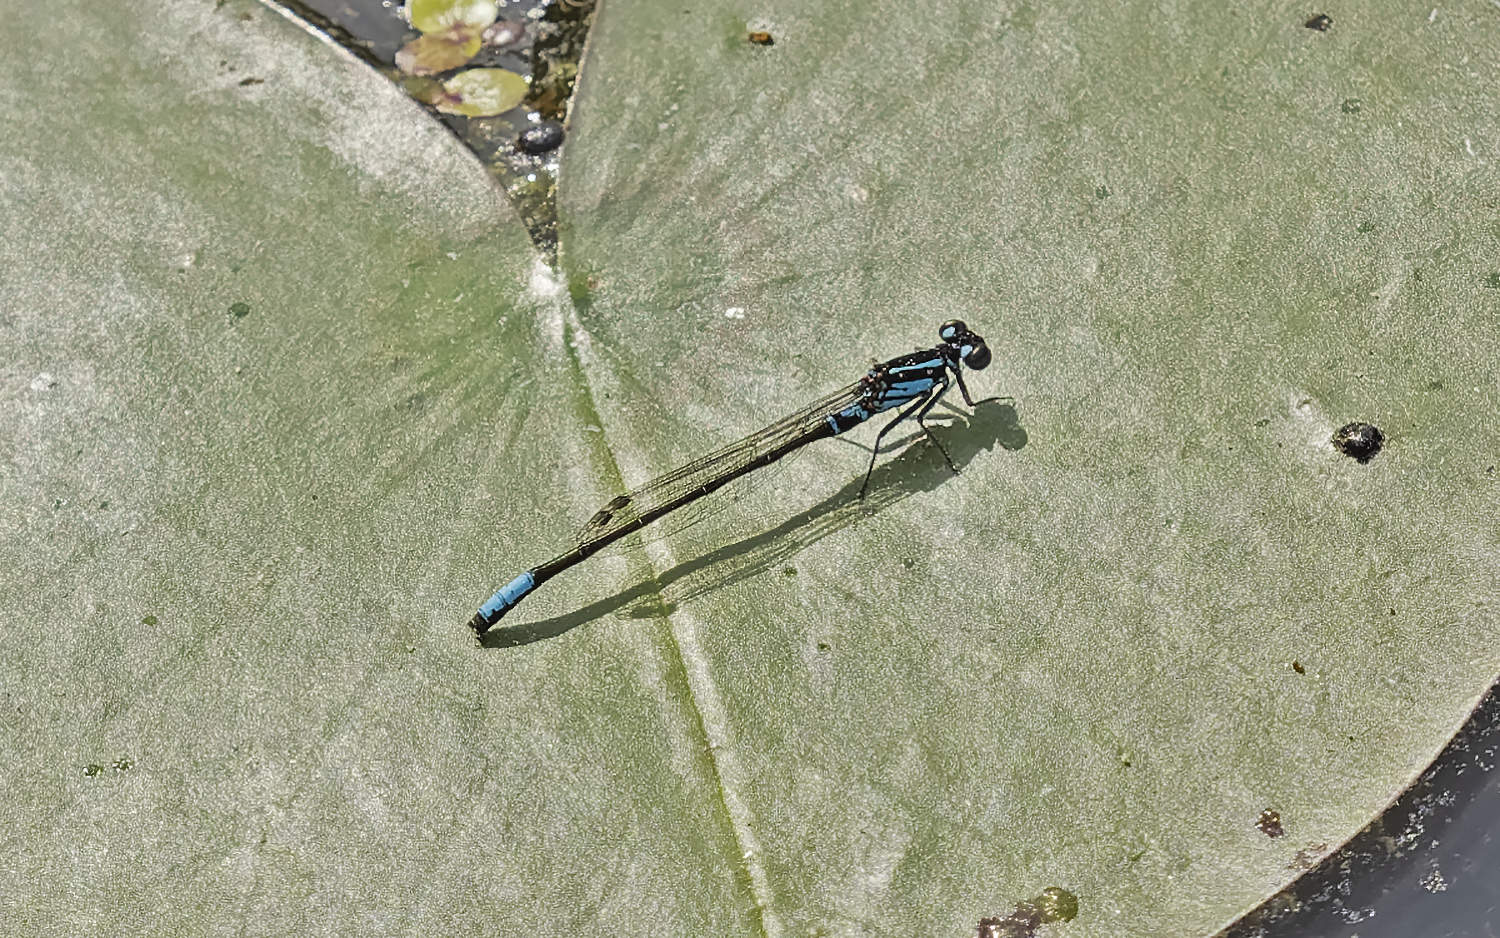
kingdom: Animalia
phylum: Arthropoda
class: Insecta
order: Odonata
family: Coenagrionidae
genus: Ischnura
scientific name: Ischnura kellicotti
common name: Lilypad forktail
